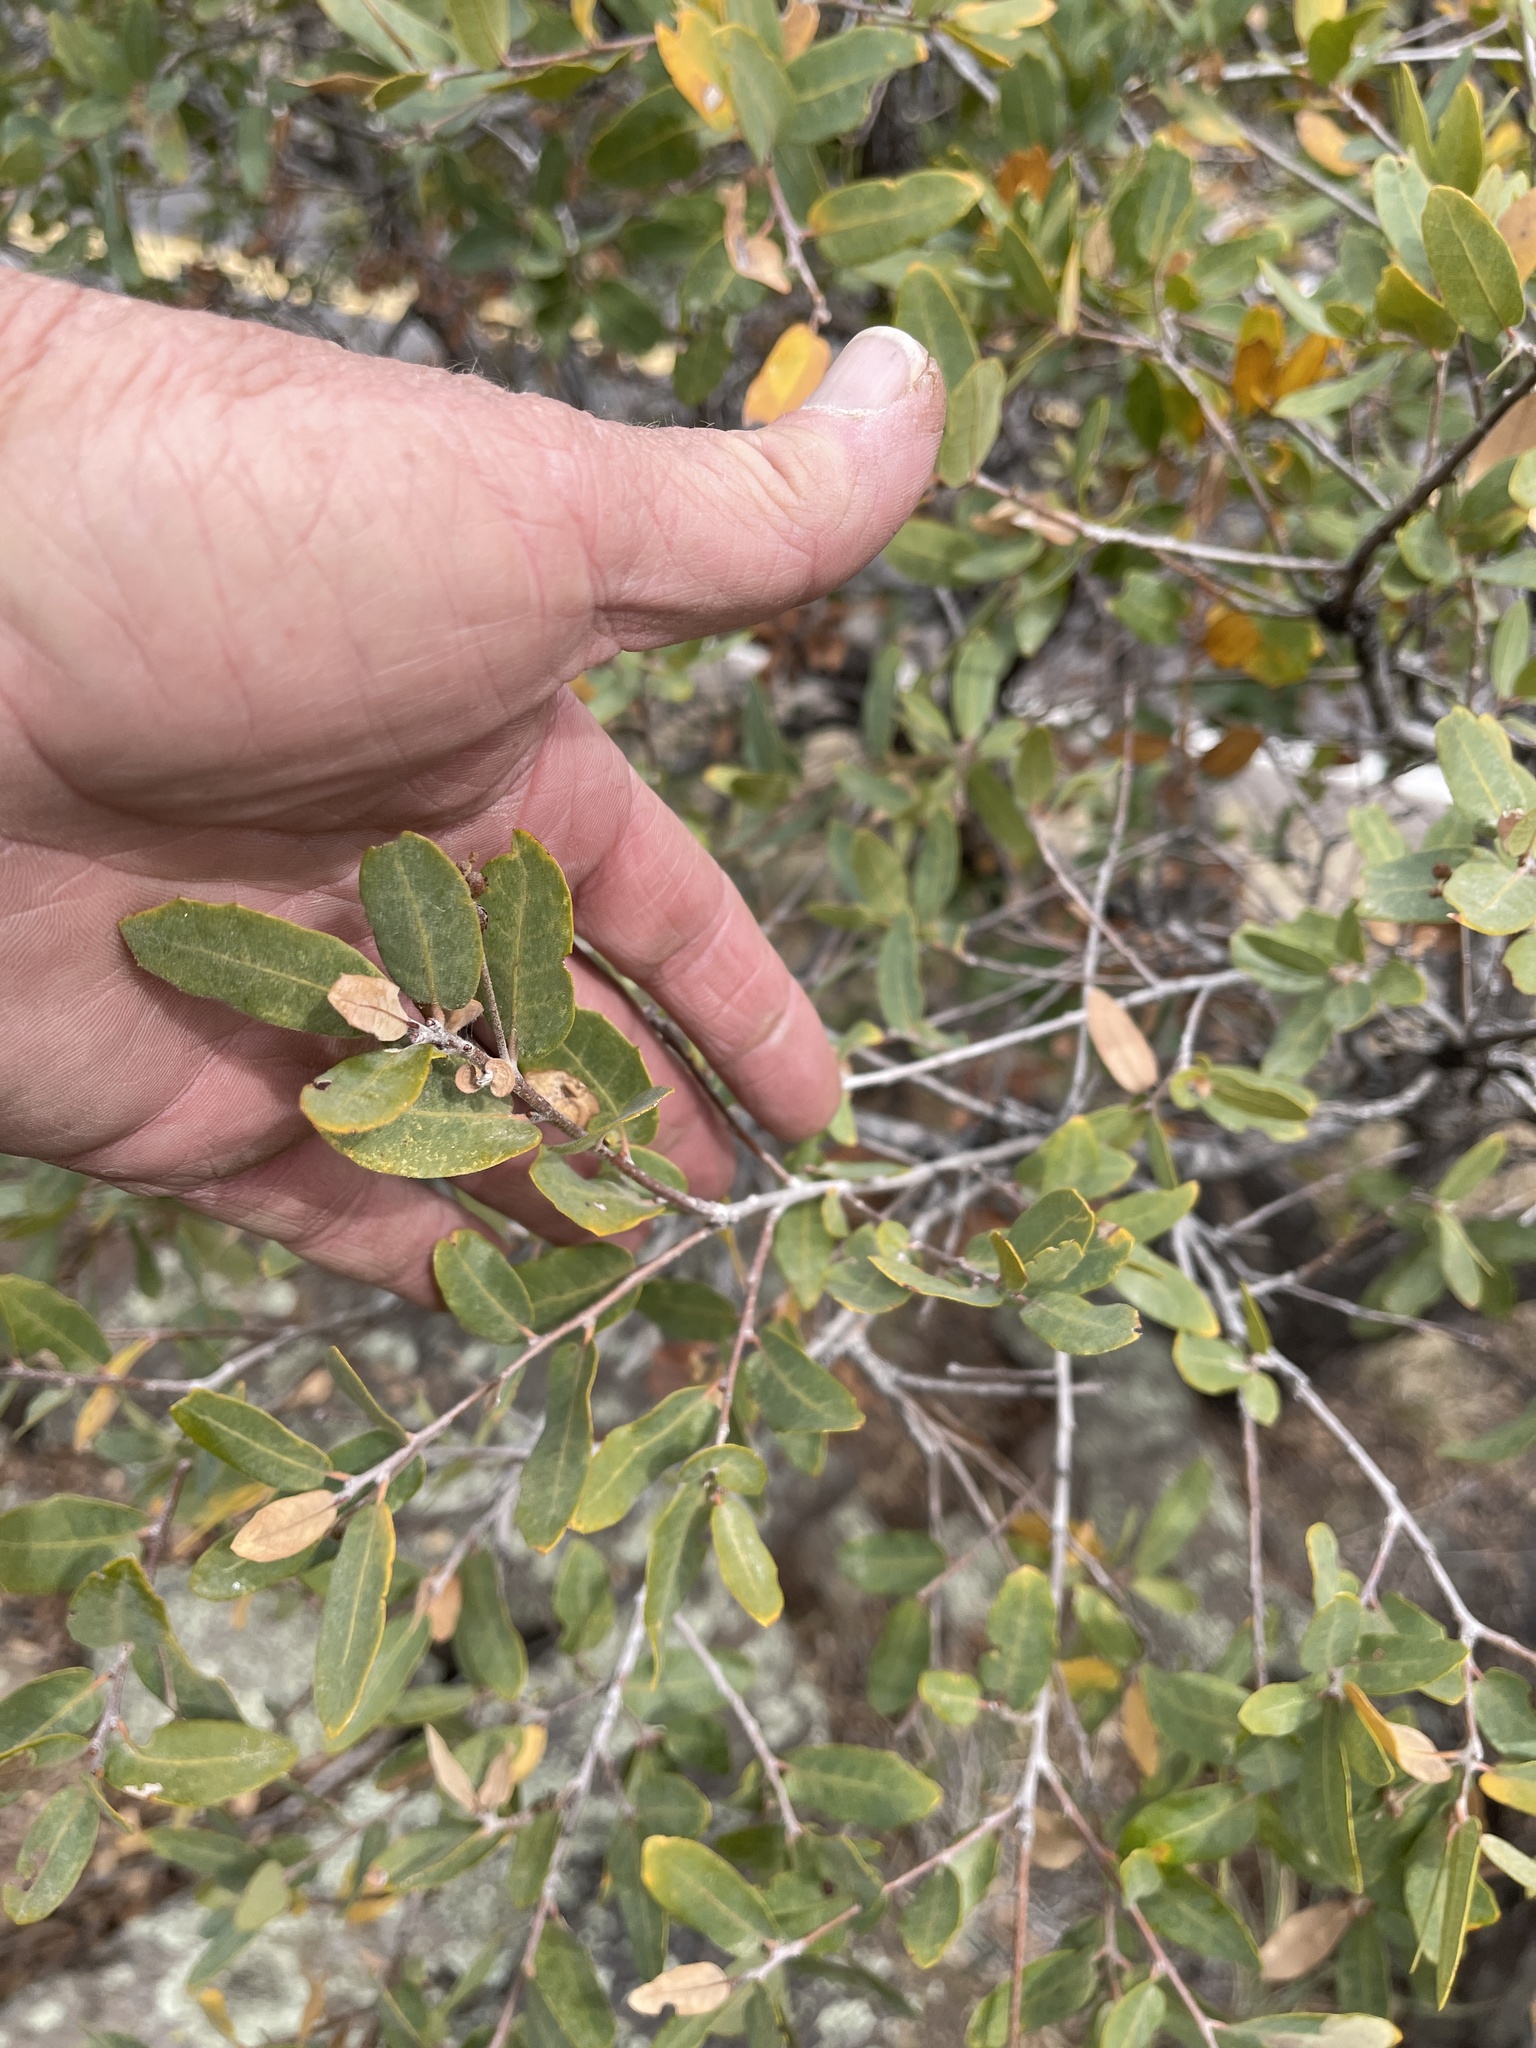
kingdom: Plantae
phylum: Tracheophyta
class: Magnoliopsida
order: Fagales
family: Fagaceae
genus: Quercus
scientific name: Quercus grisea
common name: Gray oak
